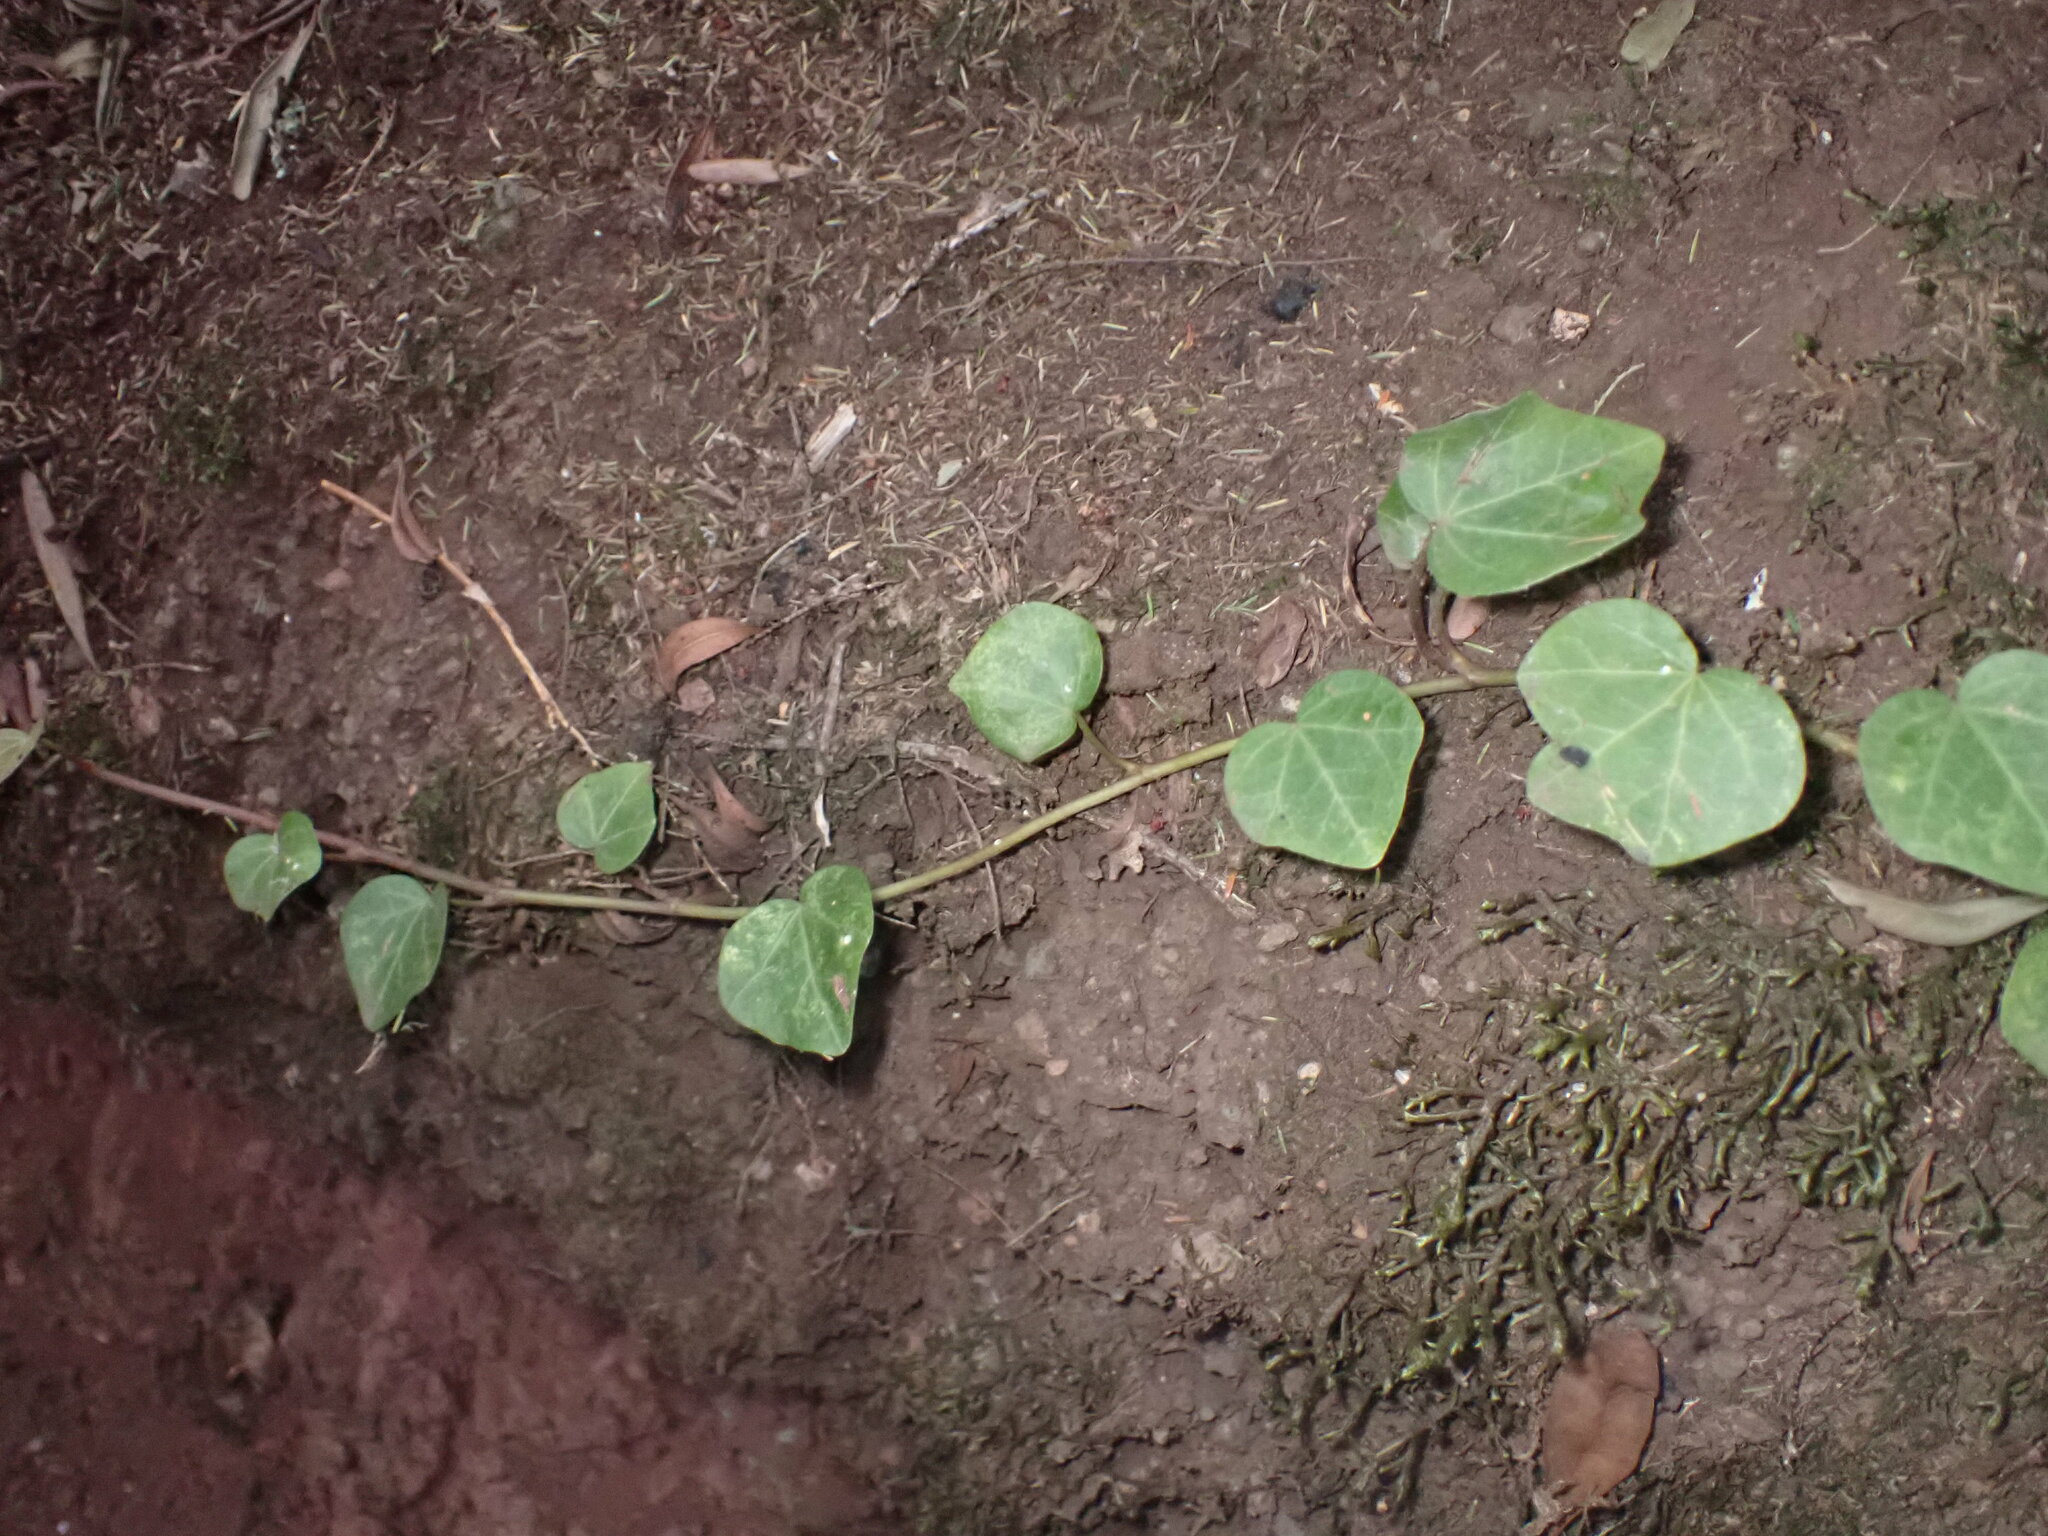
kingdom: Plantae
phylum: Tracheophyta
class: Magnoliopsida
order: Apiales
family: Araliaceae
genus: Hedera
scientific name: Hedera canariensis
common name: Madeira ivy
